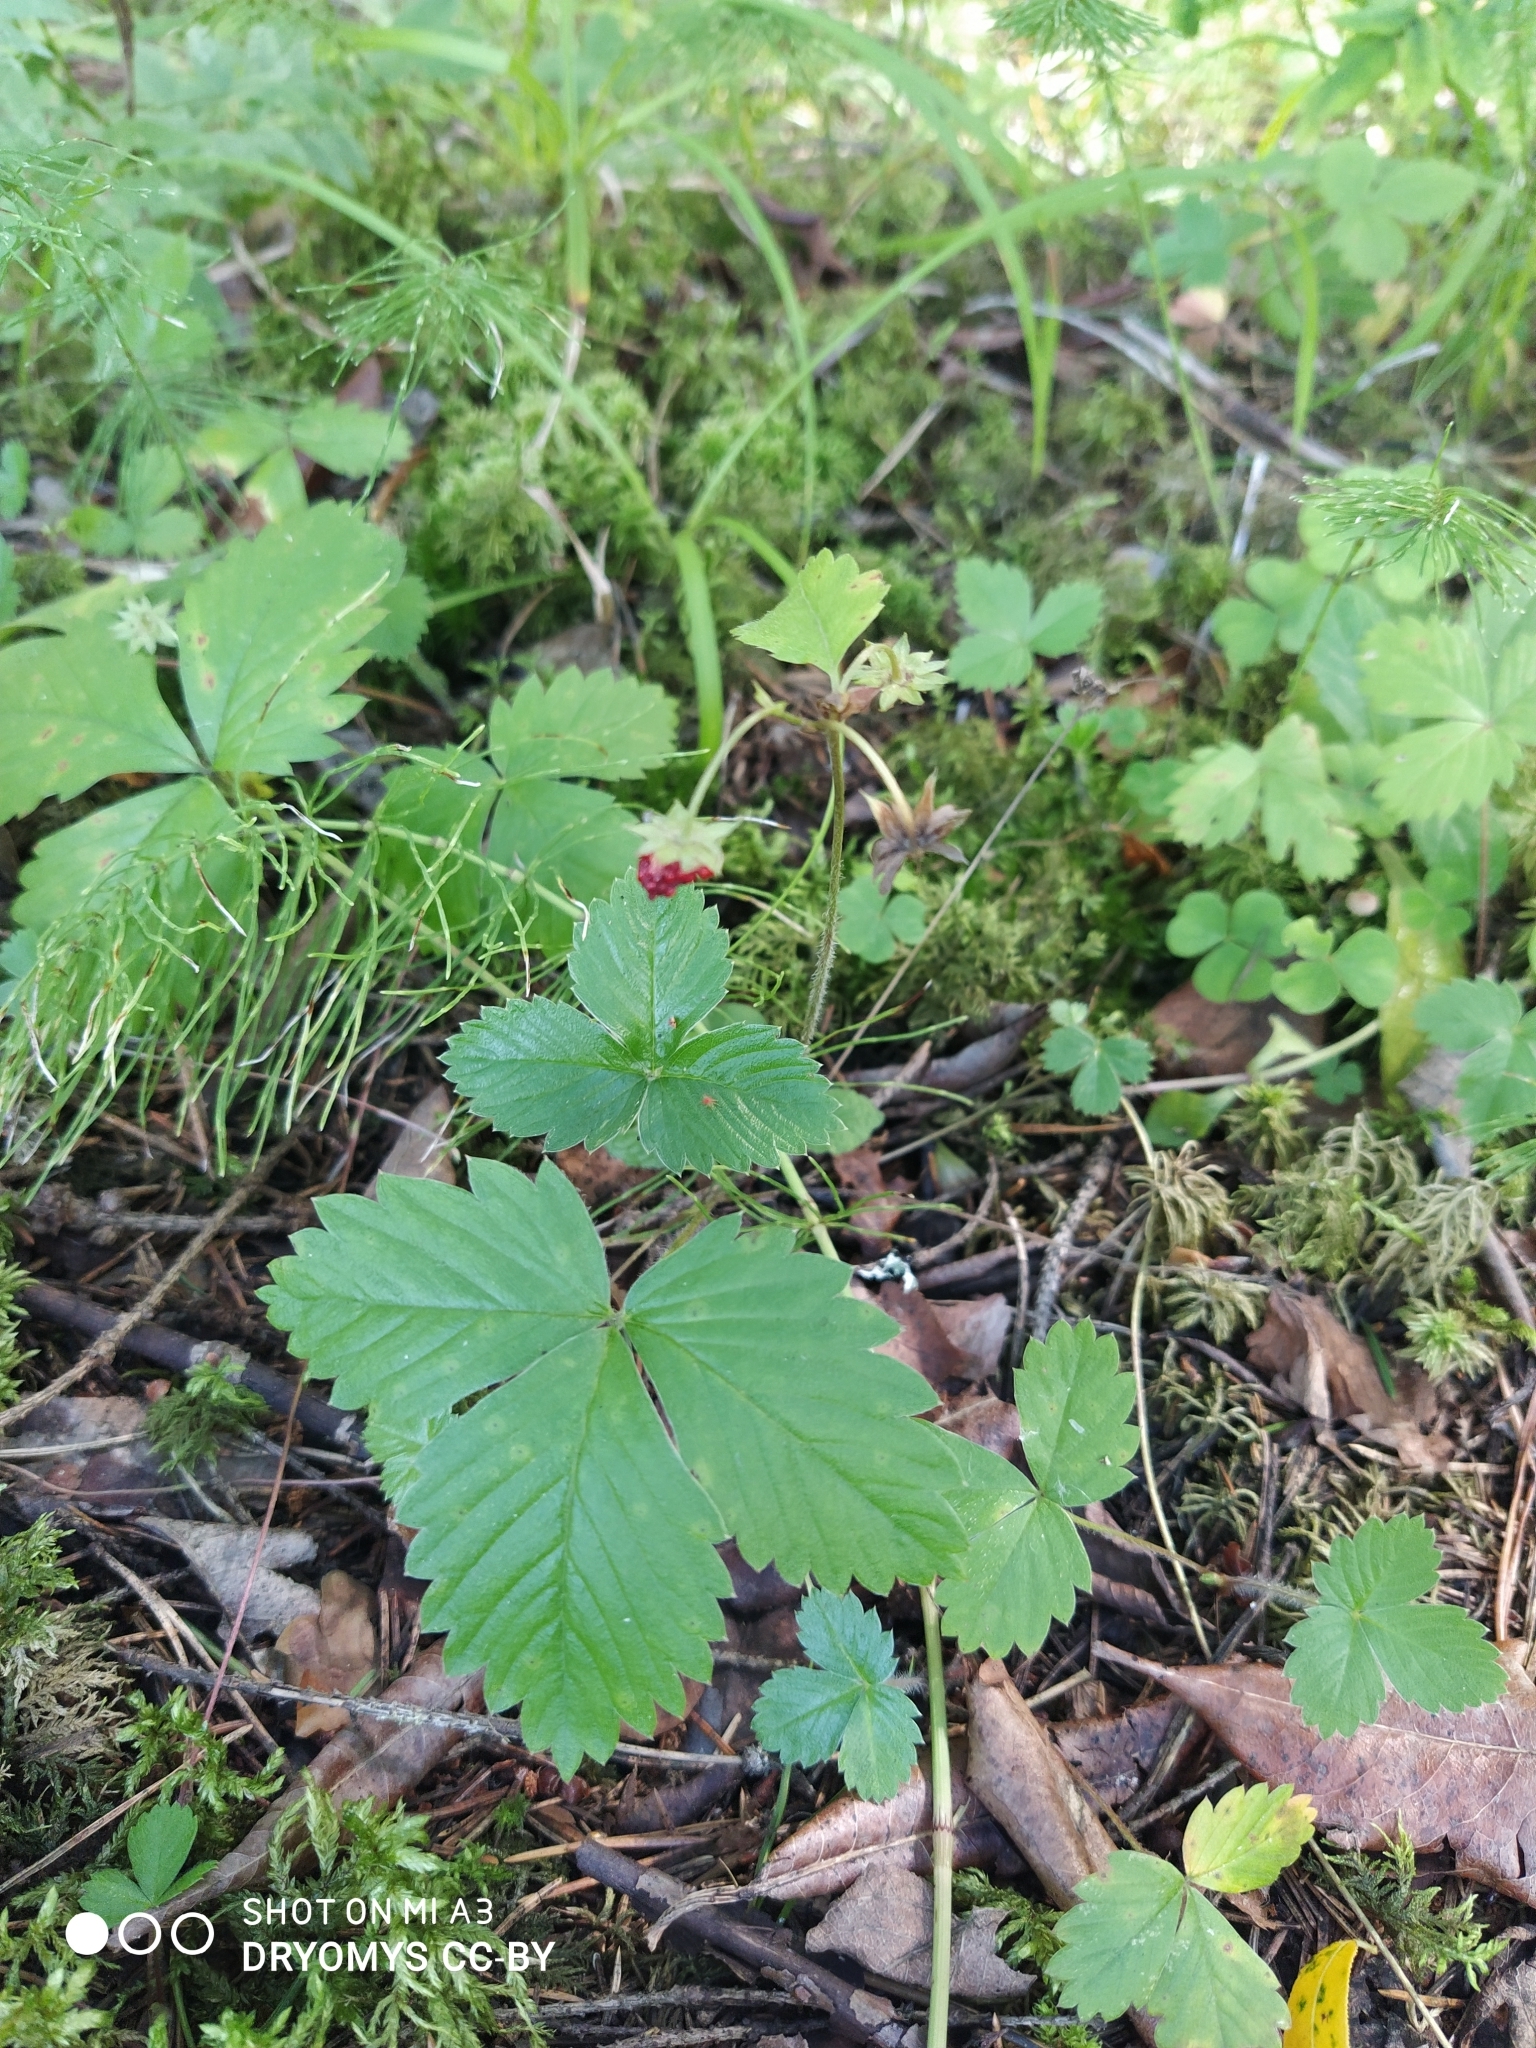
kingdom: Plantae
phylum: Tracheophyta
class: Magnoliopsida
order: Rosales
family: Rosaceae
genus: Fragaria
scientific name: Fragaria vesca
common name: Wild strawberry
